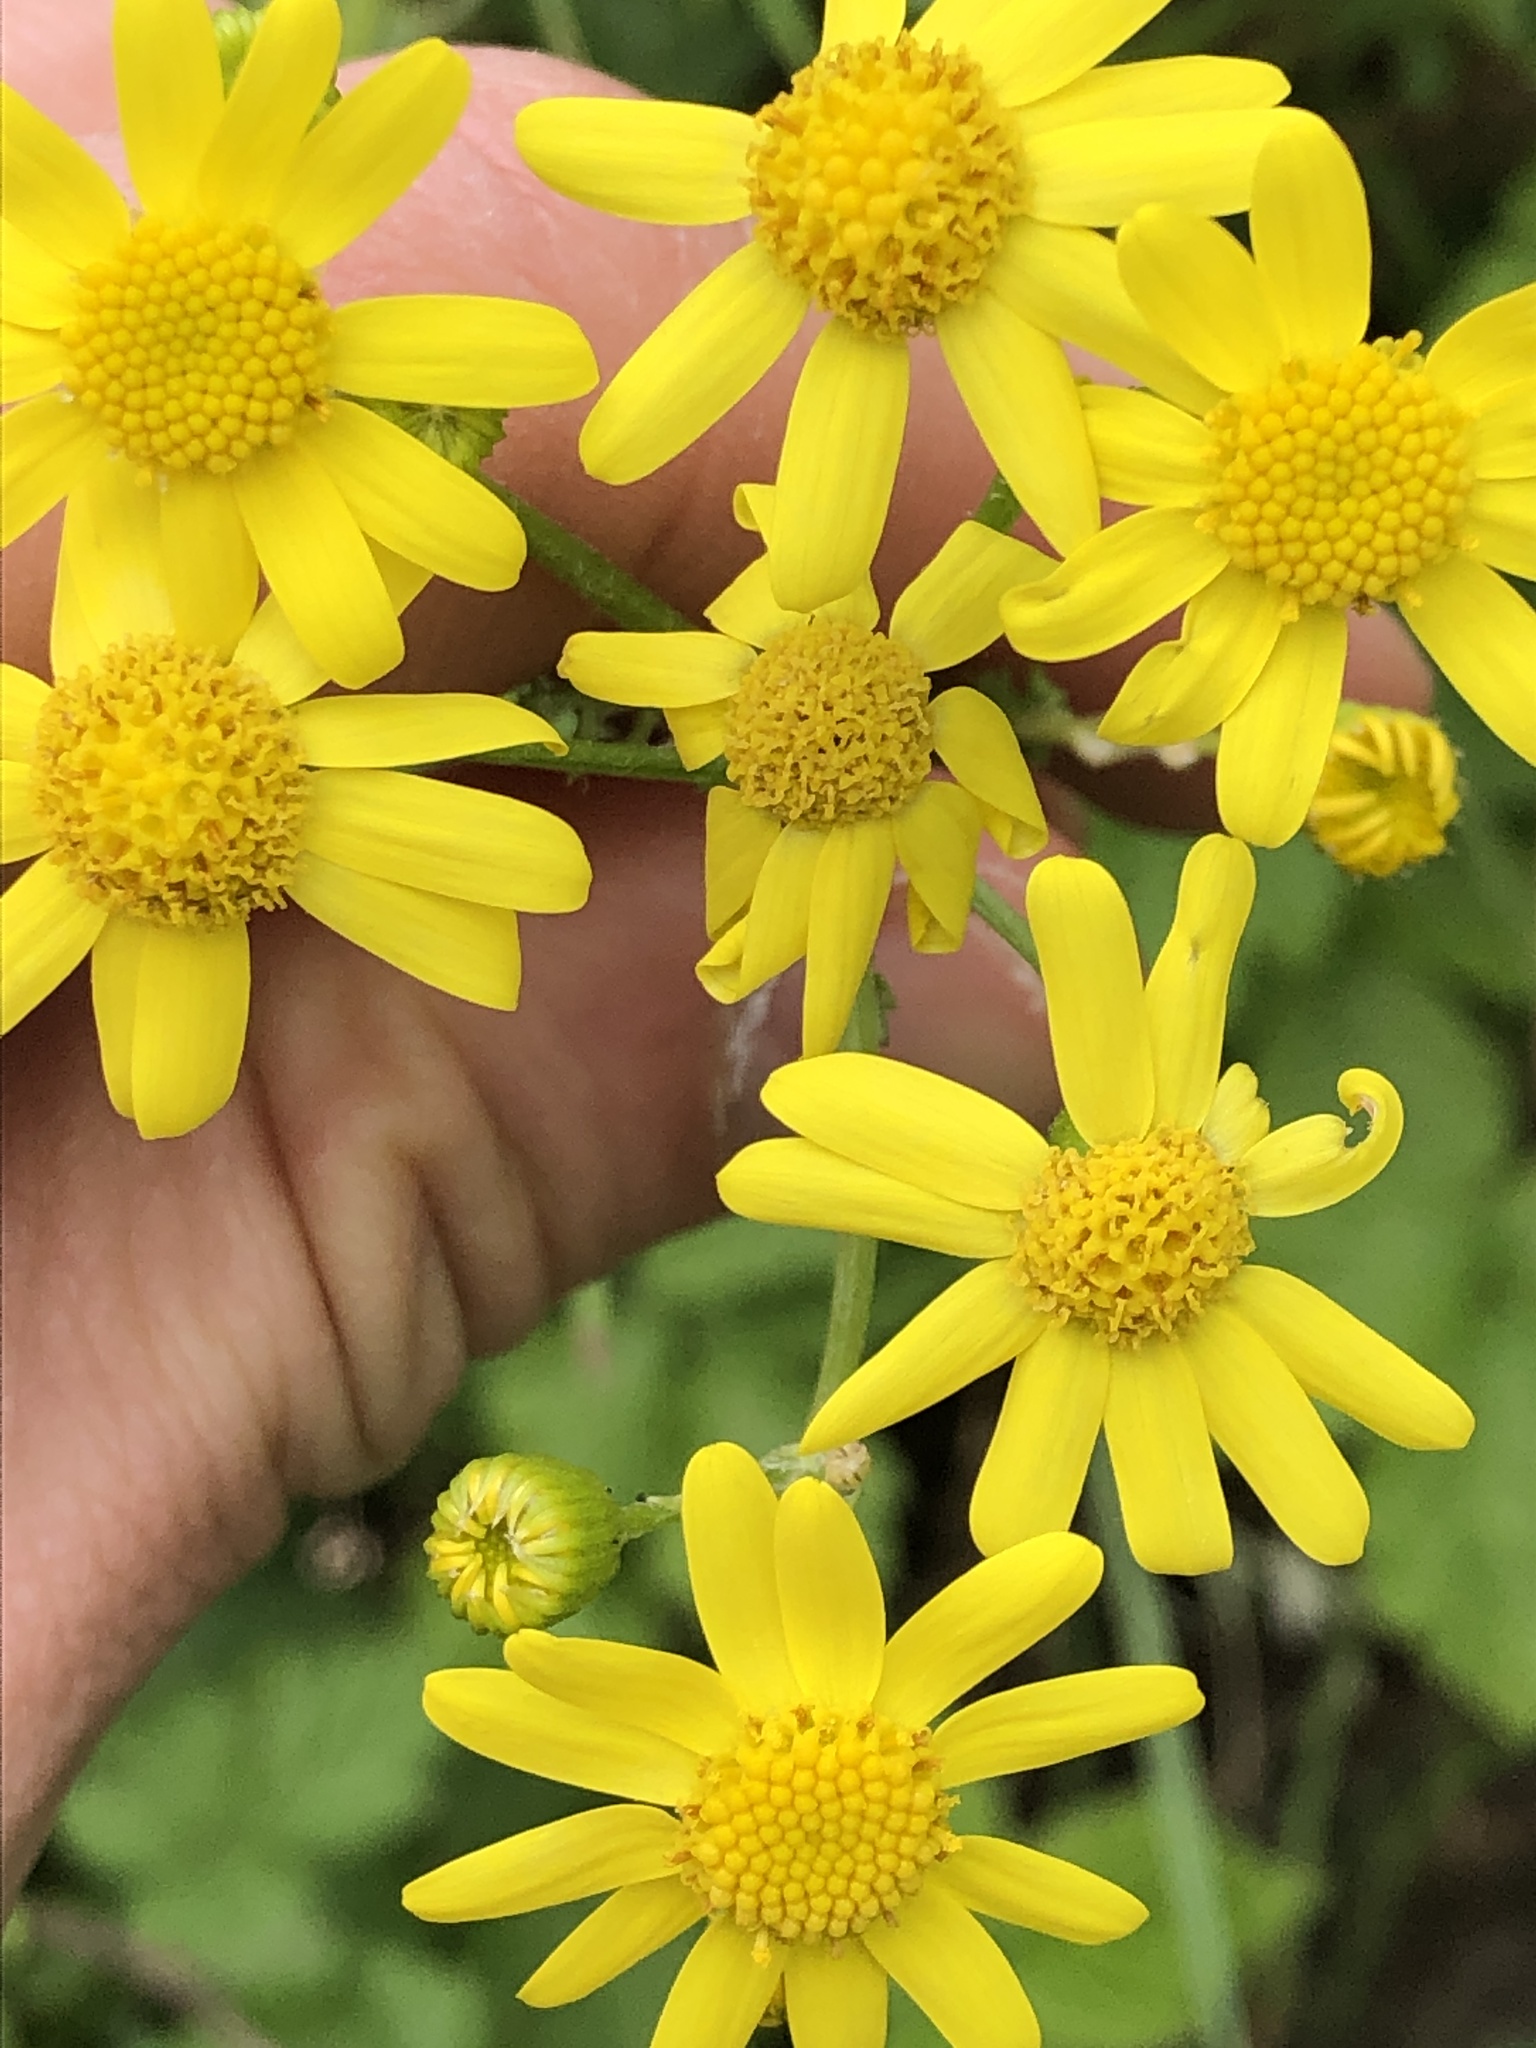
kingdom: Plantae
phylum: Tracheophyta
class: Magnoliopsida
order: Asterales
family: Asteraceae
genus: Senecio
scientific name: Senecio vernalis
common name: Eastern groundsel
